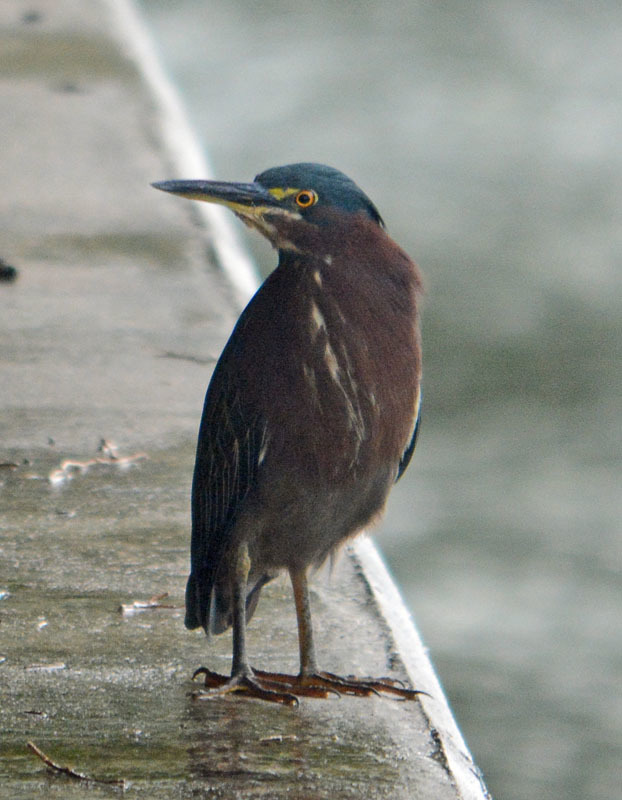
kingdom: Animalia
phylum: Chordata
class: Aves
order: Pelecaniformes
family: Ardeidae
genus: Butorides
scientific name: Butorides virescens
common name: Green heron
